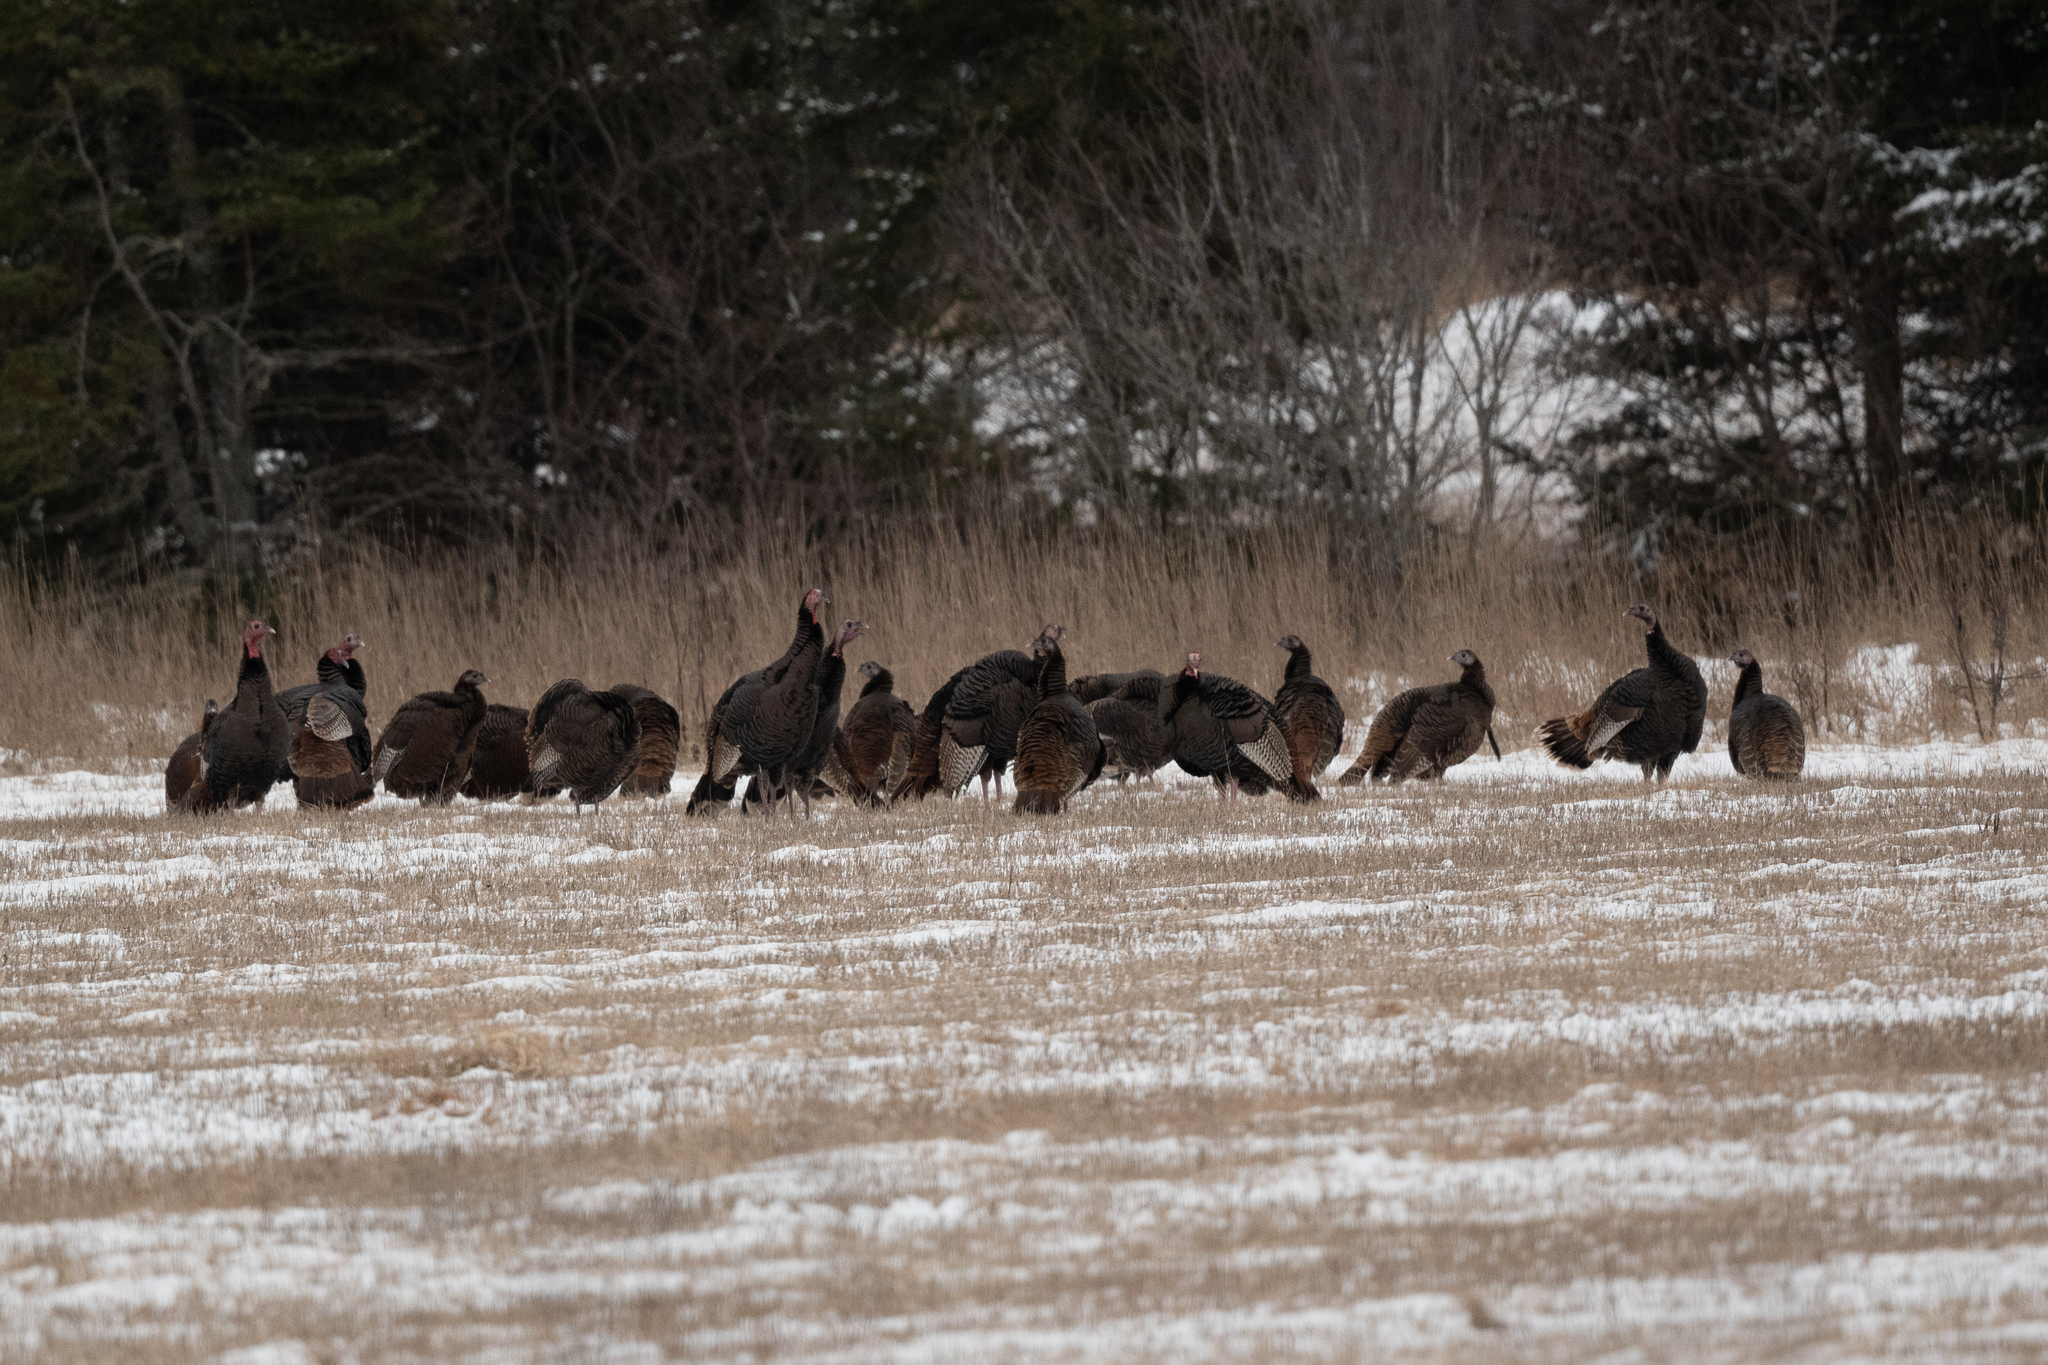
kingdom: Animalia
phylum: Chordata
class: Aves
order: Galliformes
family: Phasianidae
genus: Meleagris
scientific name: Meleagris gallopavo
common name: Wild turkey
